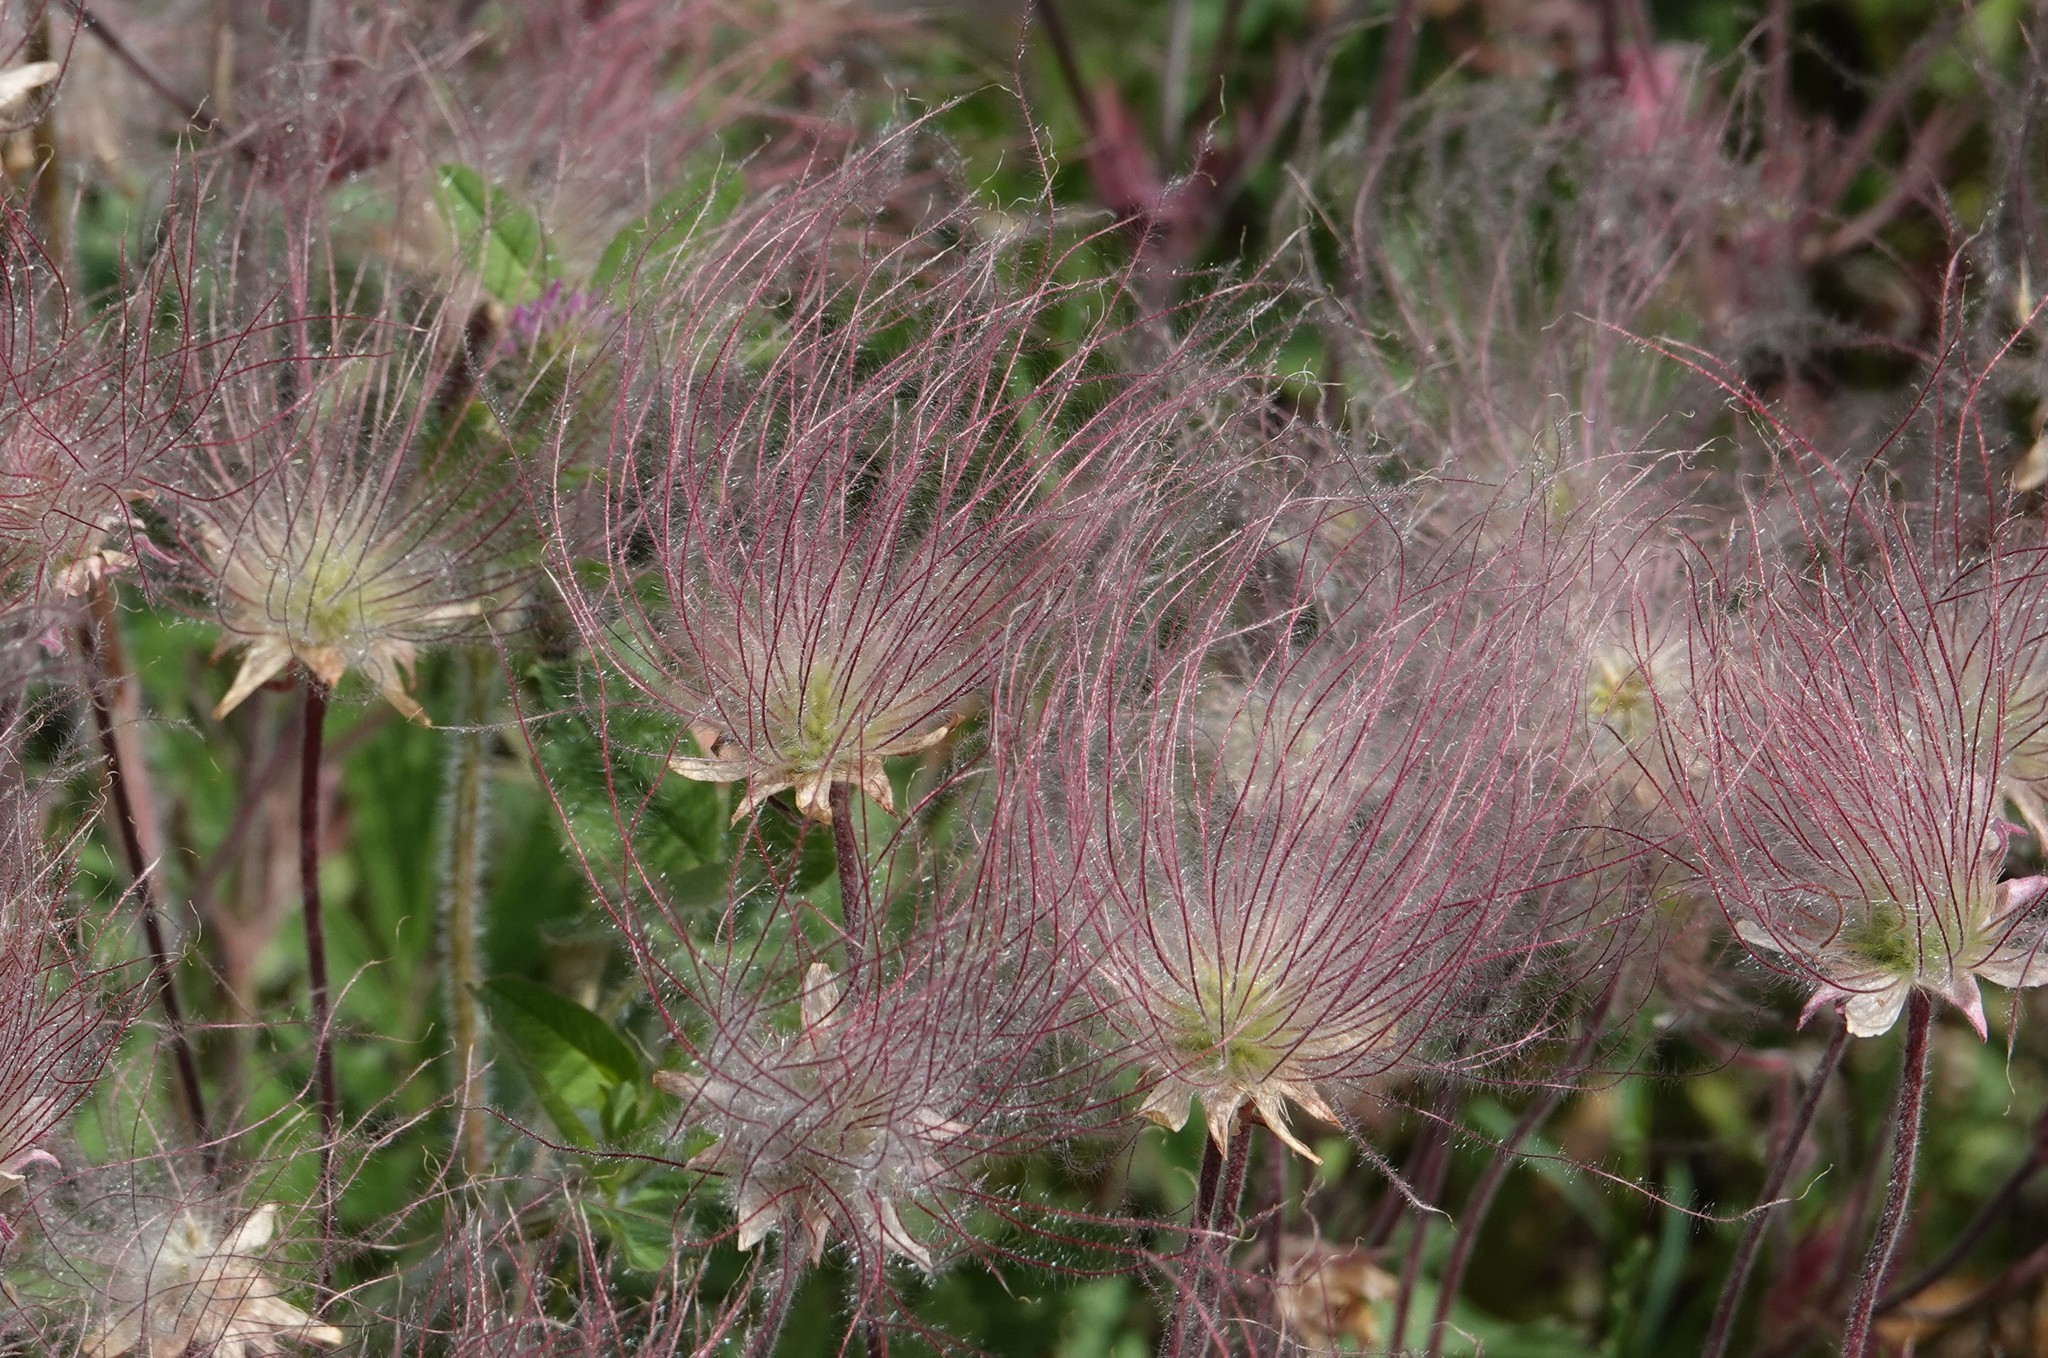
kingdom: Plantae
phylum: Tracheophyta
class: Magnoliopsida
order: Rosales
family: Rosaceae
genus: Geum
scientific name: Geum triflorum
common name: Old man's whiskers
